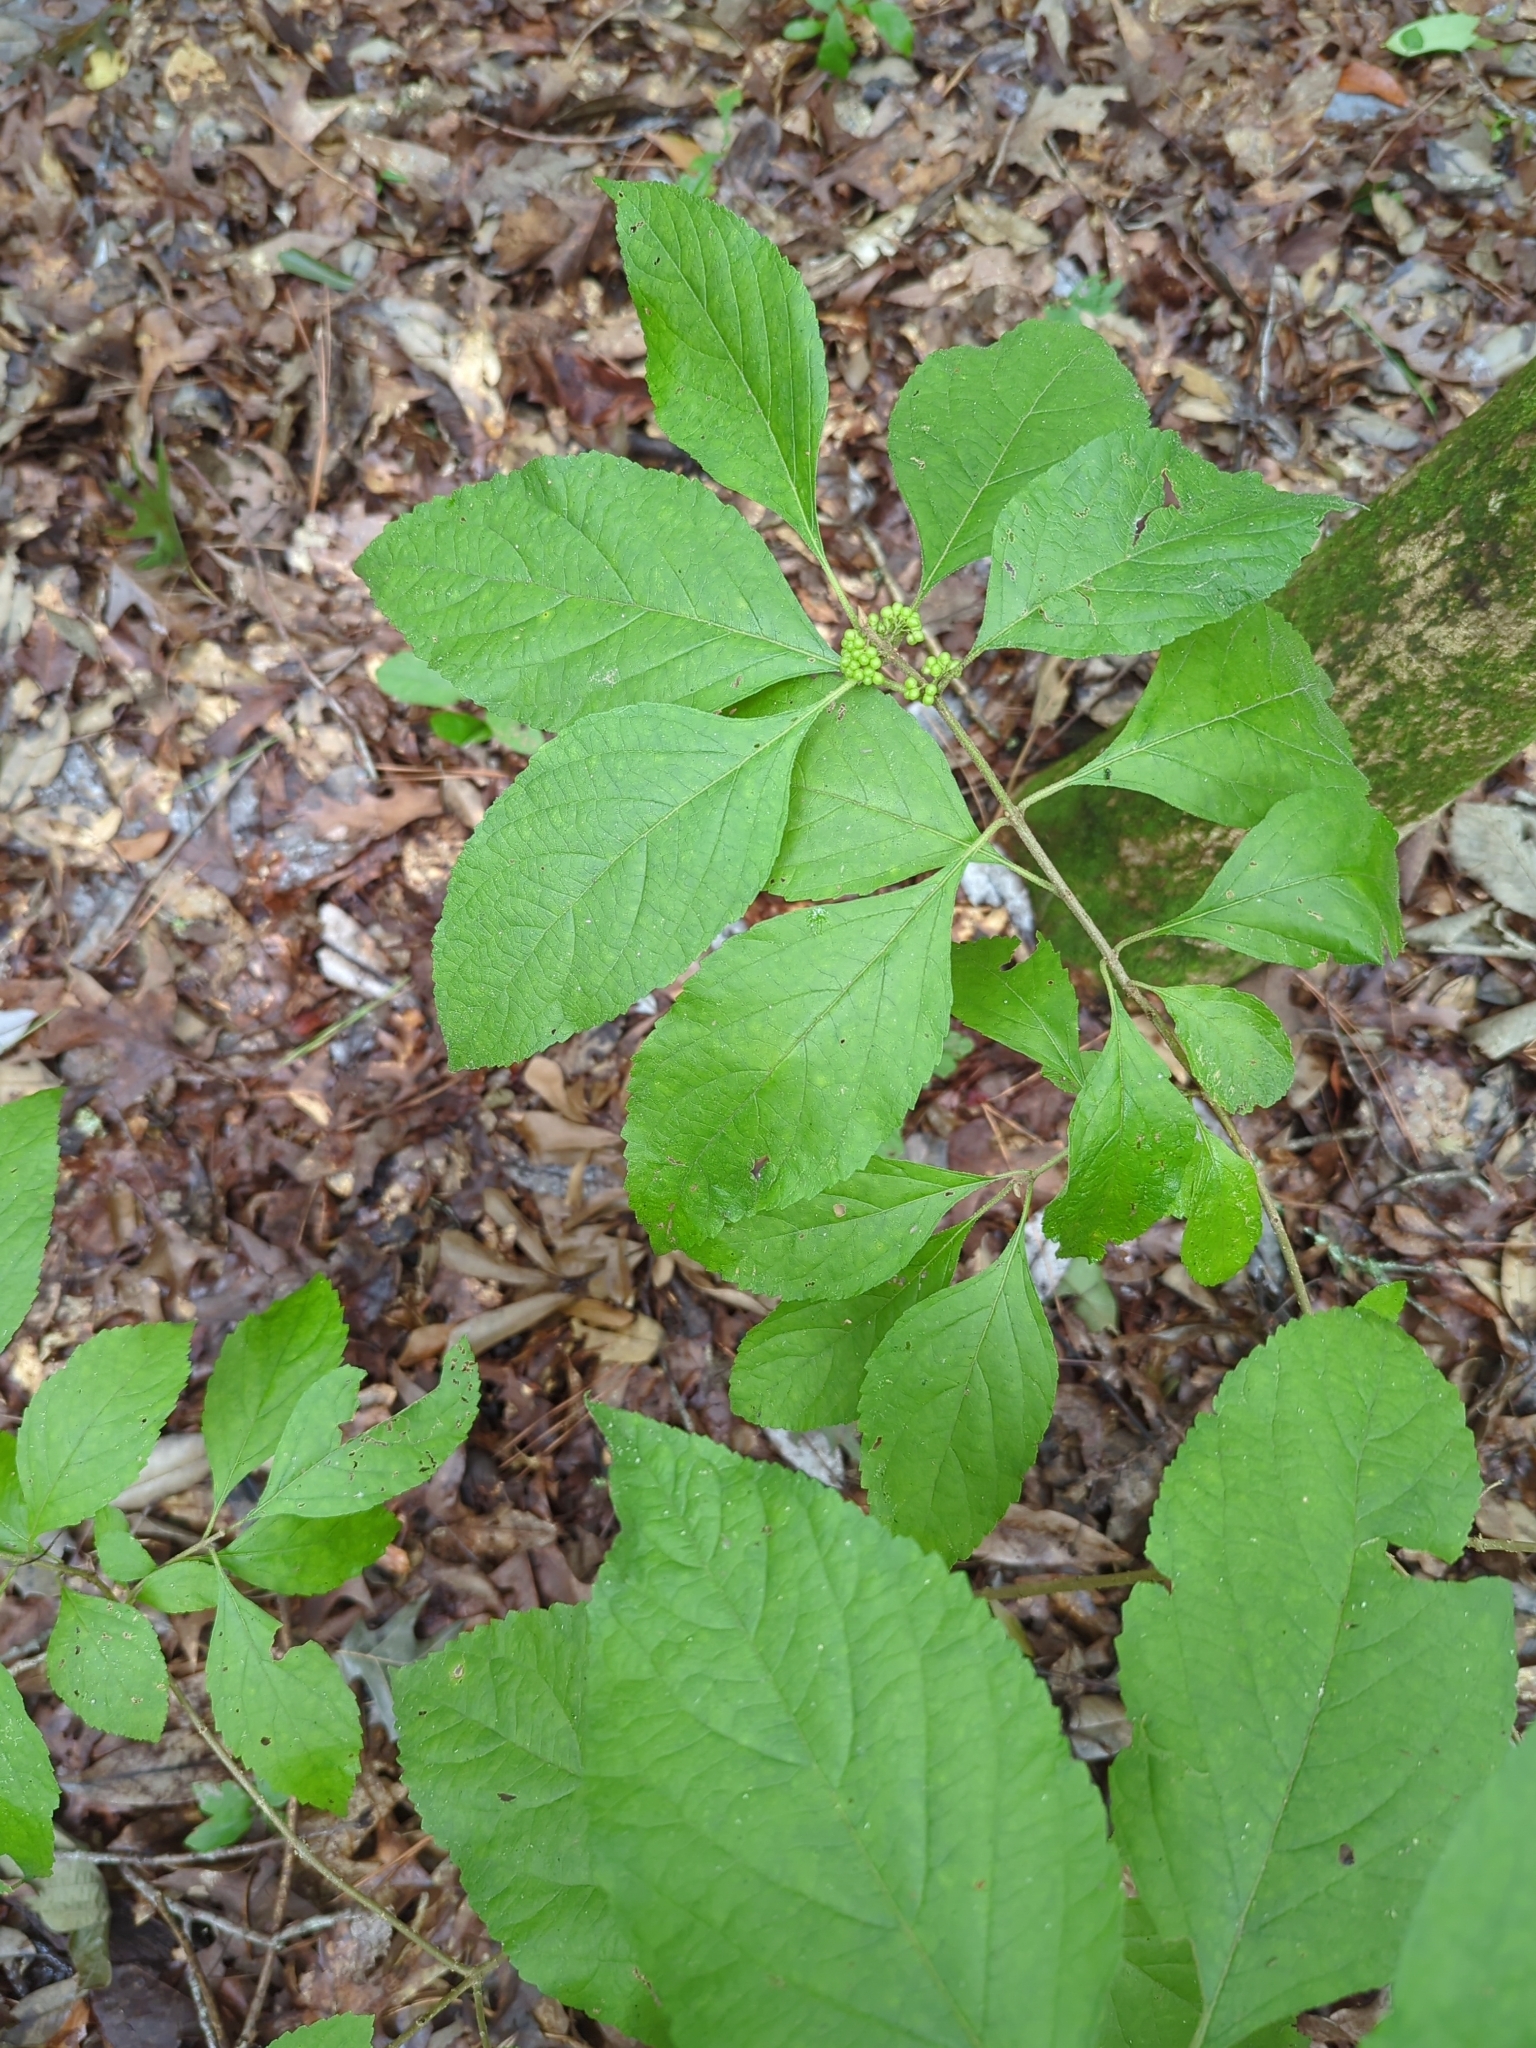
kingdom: Plantae
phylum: Tracheophyta
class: Magnoliopsida
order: Lamiales
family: Lamiaceae
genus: Callicarpa
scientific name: Callicarpa americana
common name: American beautyberry
